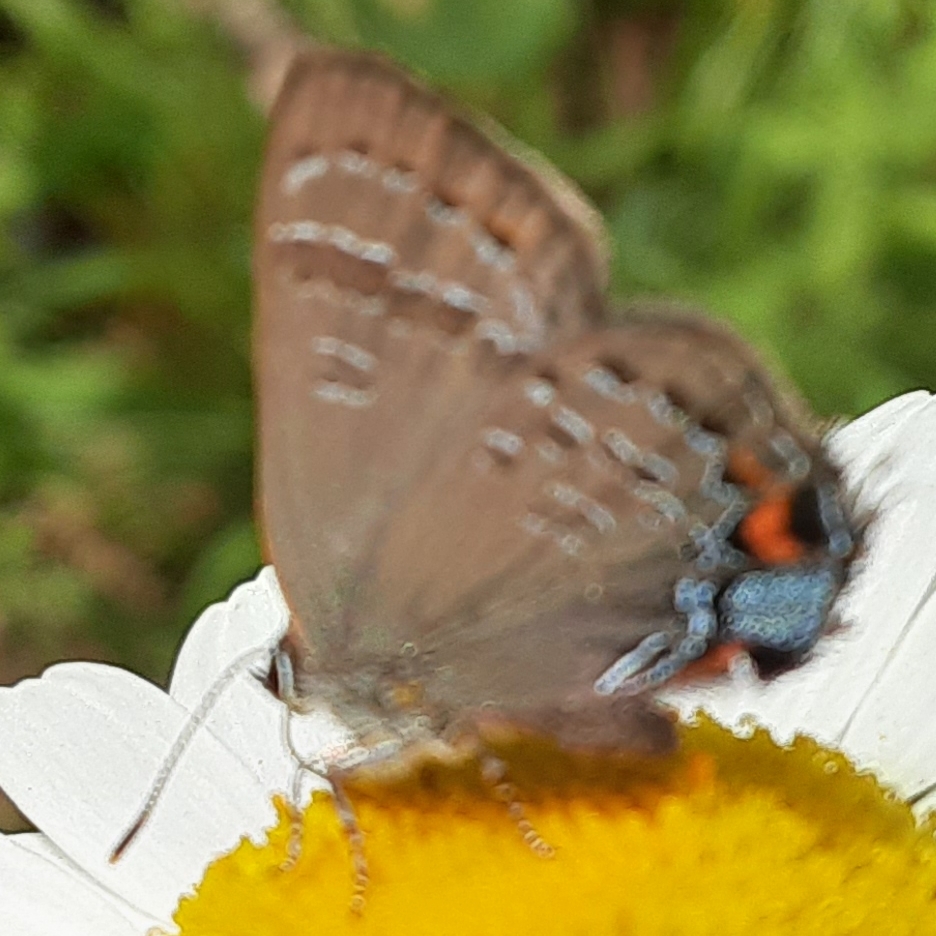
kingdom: Animalia
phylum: Arthropoda
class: Insecta
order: Lepidoptera
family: Lycaenidae
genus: Satyrium
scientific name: Satyrium calanus
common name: Banded hairstreak
